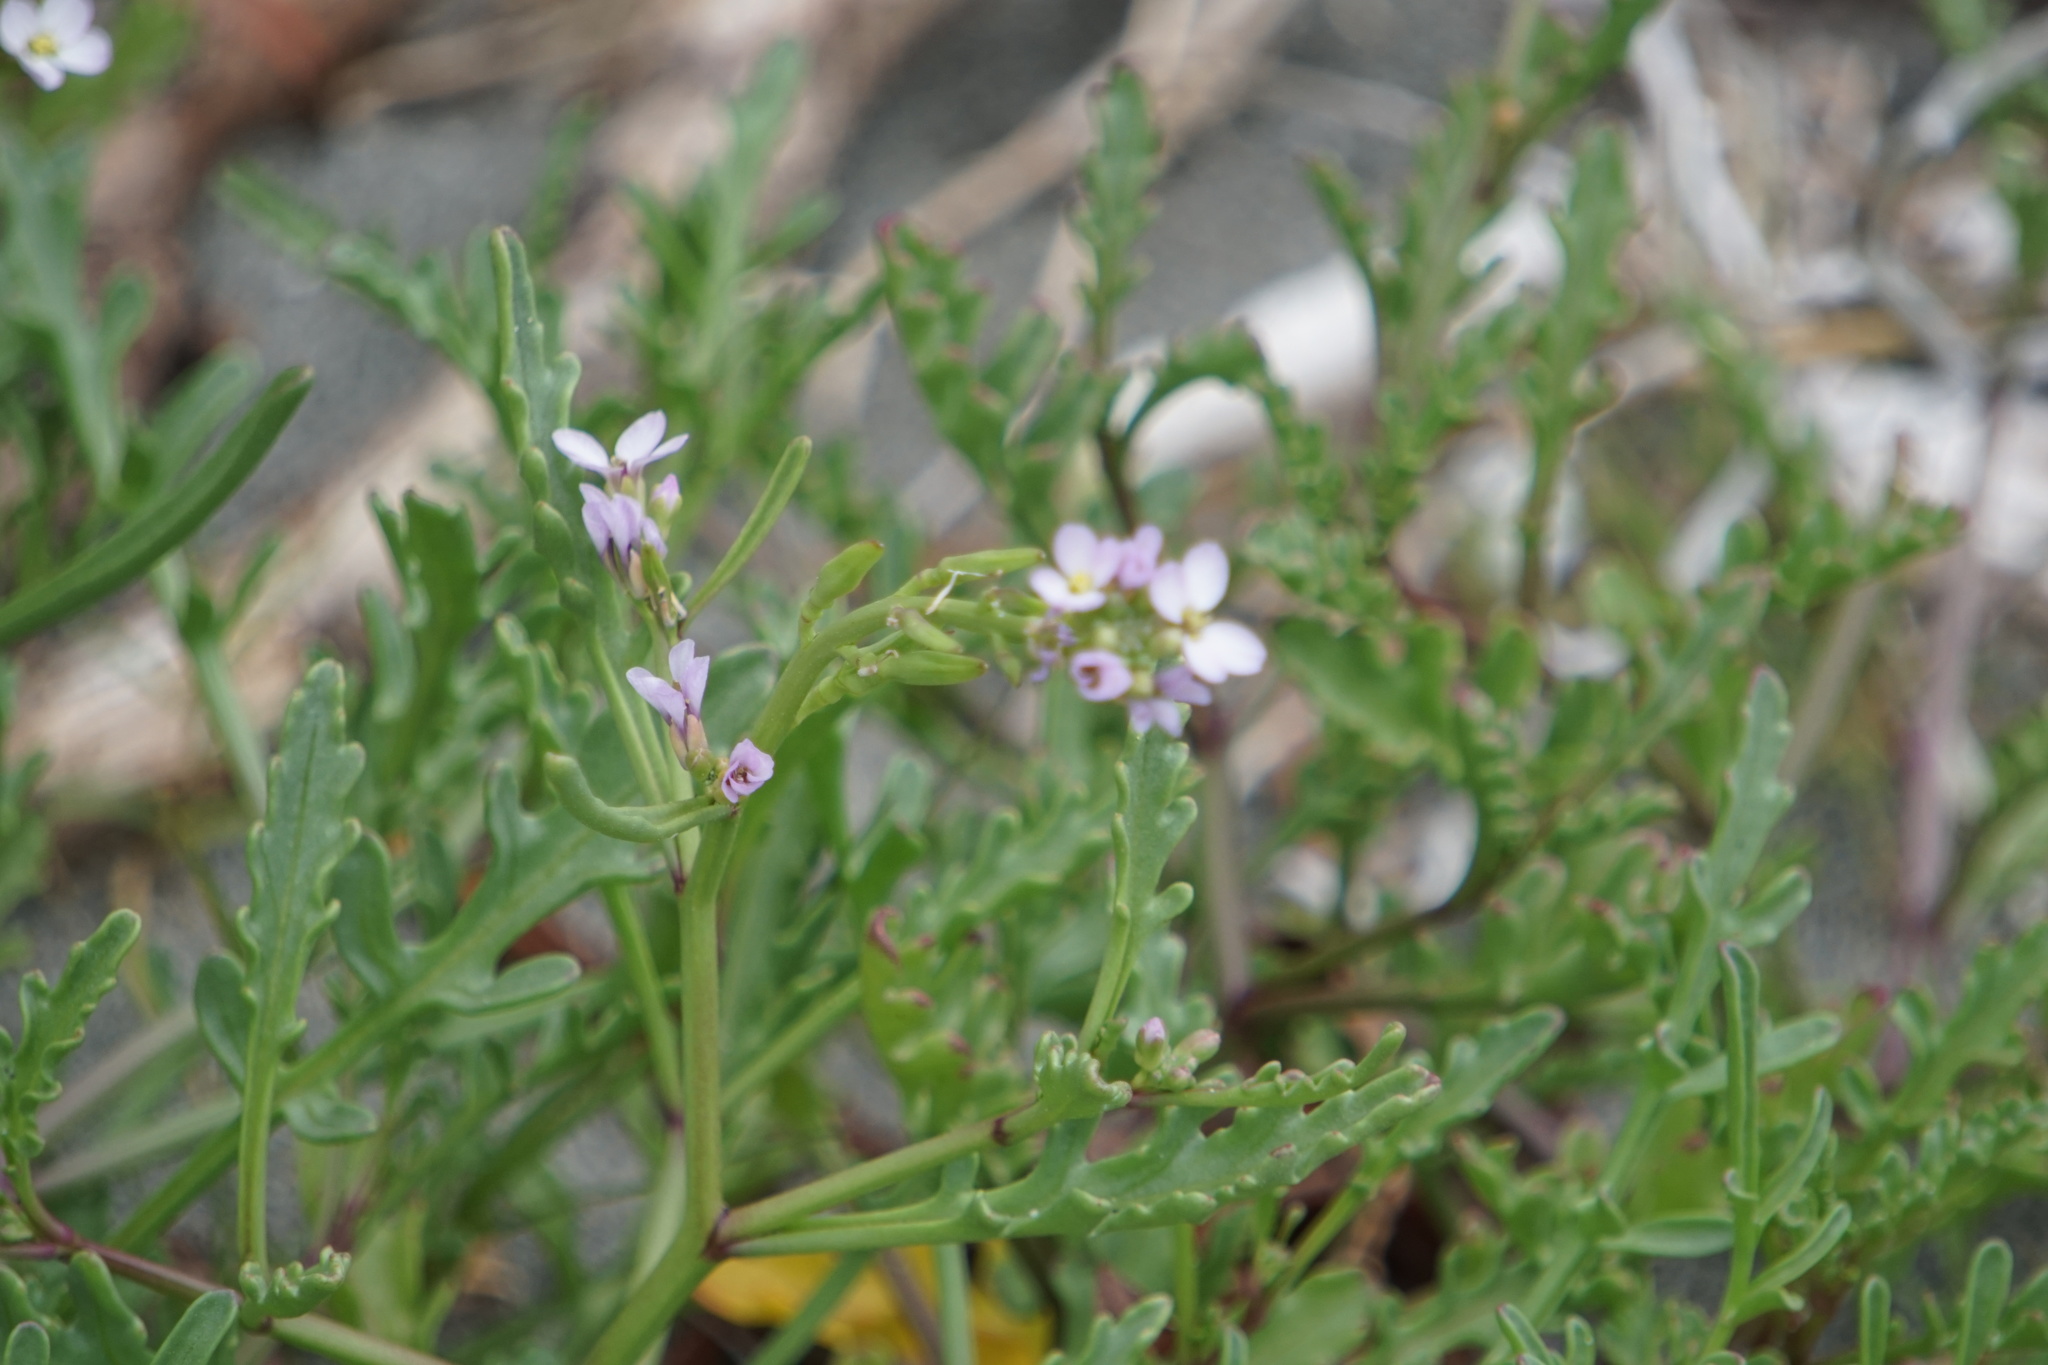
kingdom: Plantae
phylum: Tracheophyta
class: Magnoliopsida
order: Brassicales
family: Brassicaceae
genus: Cakile
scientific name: Cakile maritima
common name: Sea rocket
